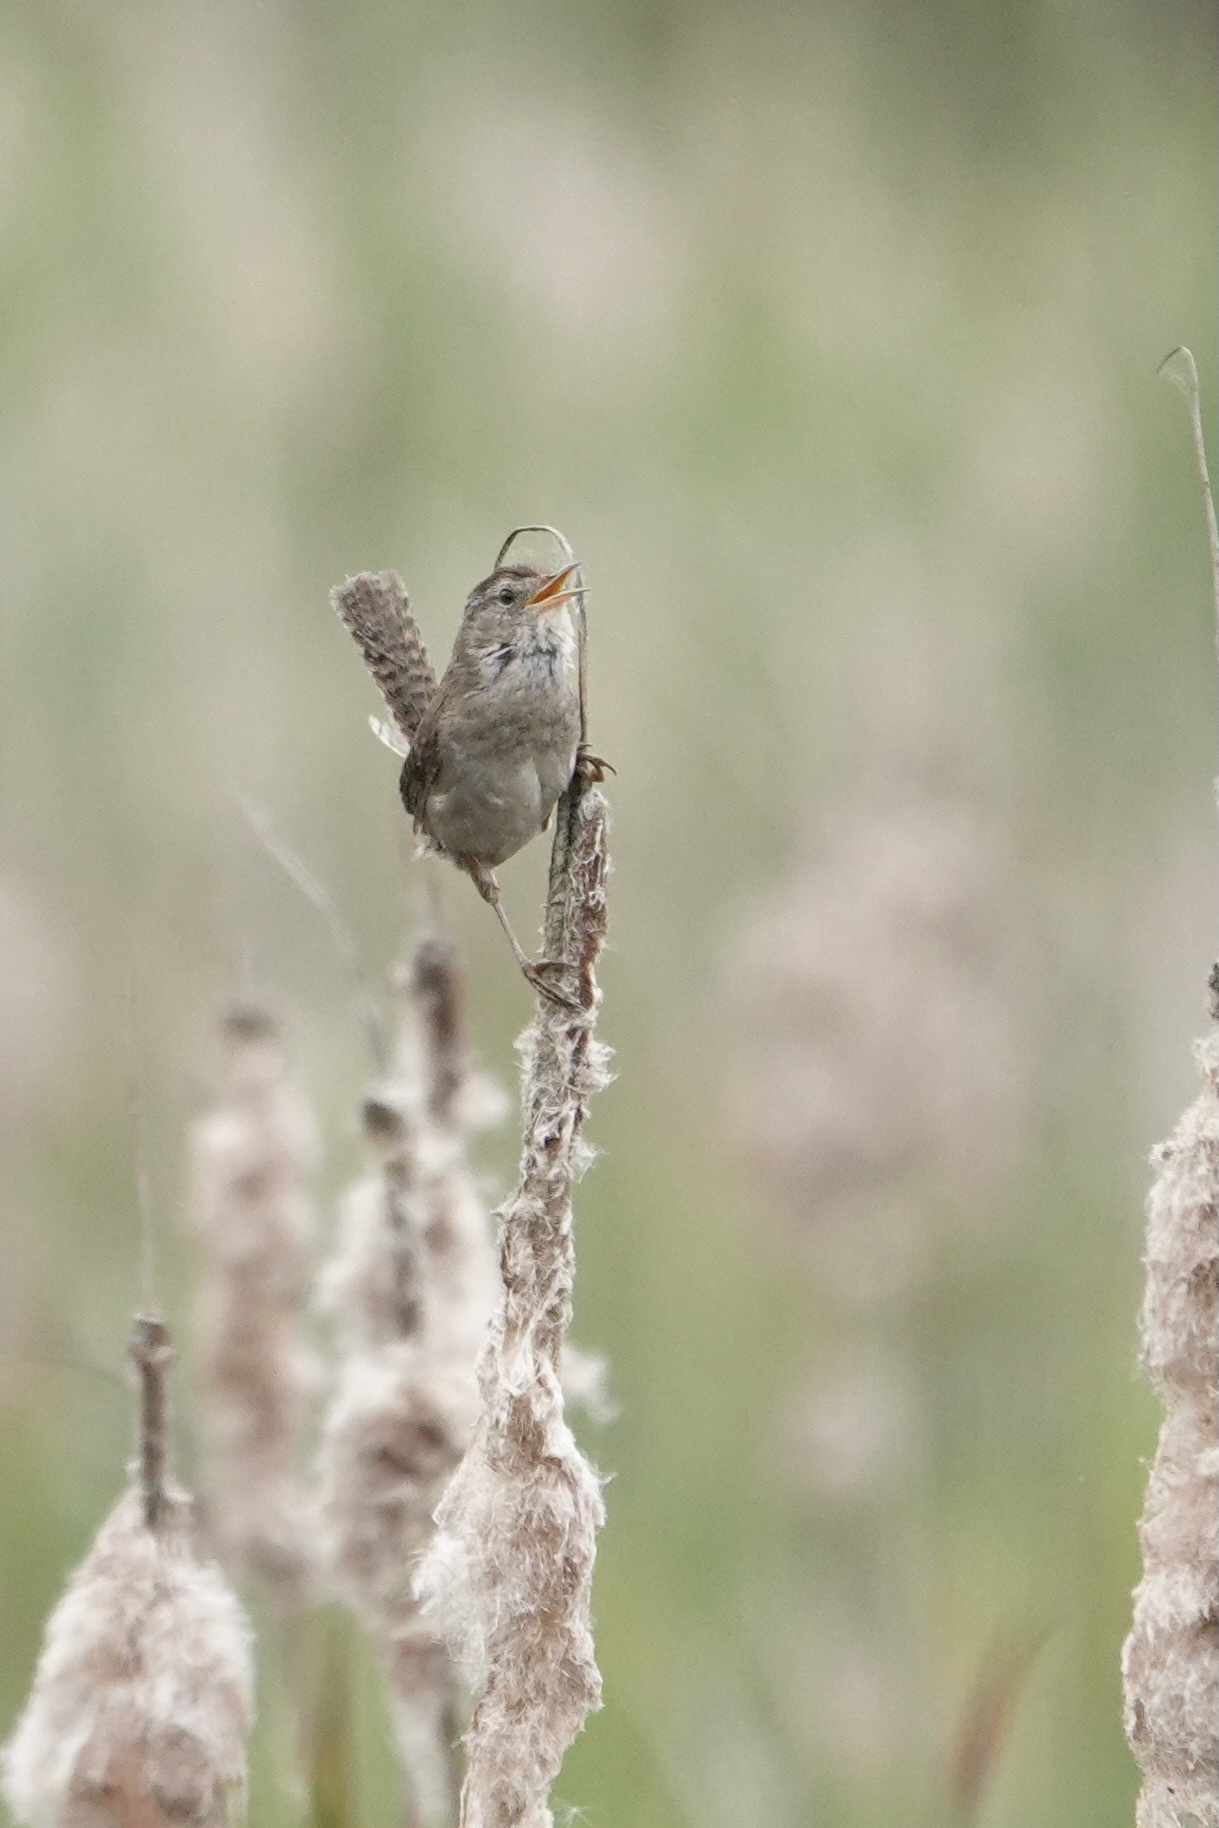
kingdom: Animalia
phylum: Chordata
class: Aves
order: Passeriformes
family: Troglodytidae
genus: Cistothorus
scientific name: Cistothorus palustris
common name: Marsh wren
